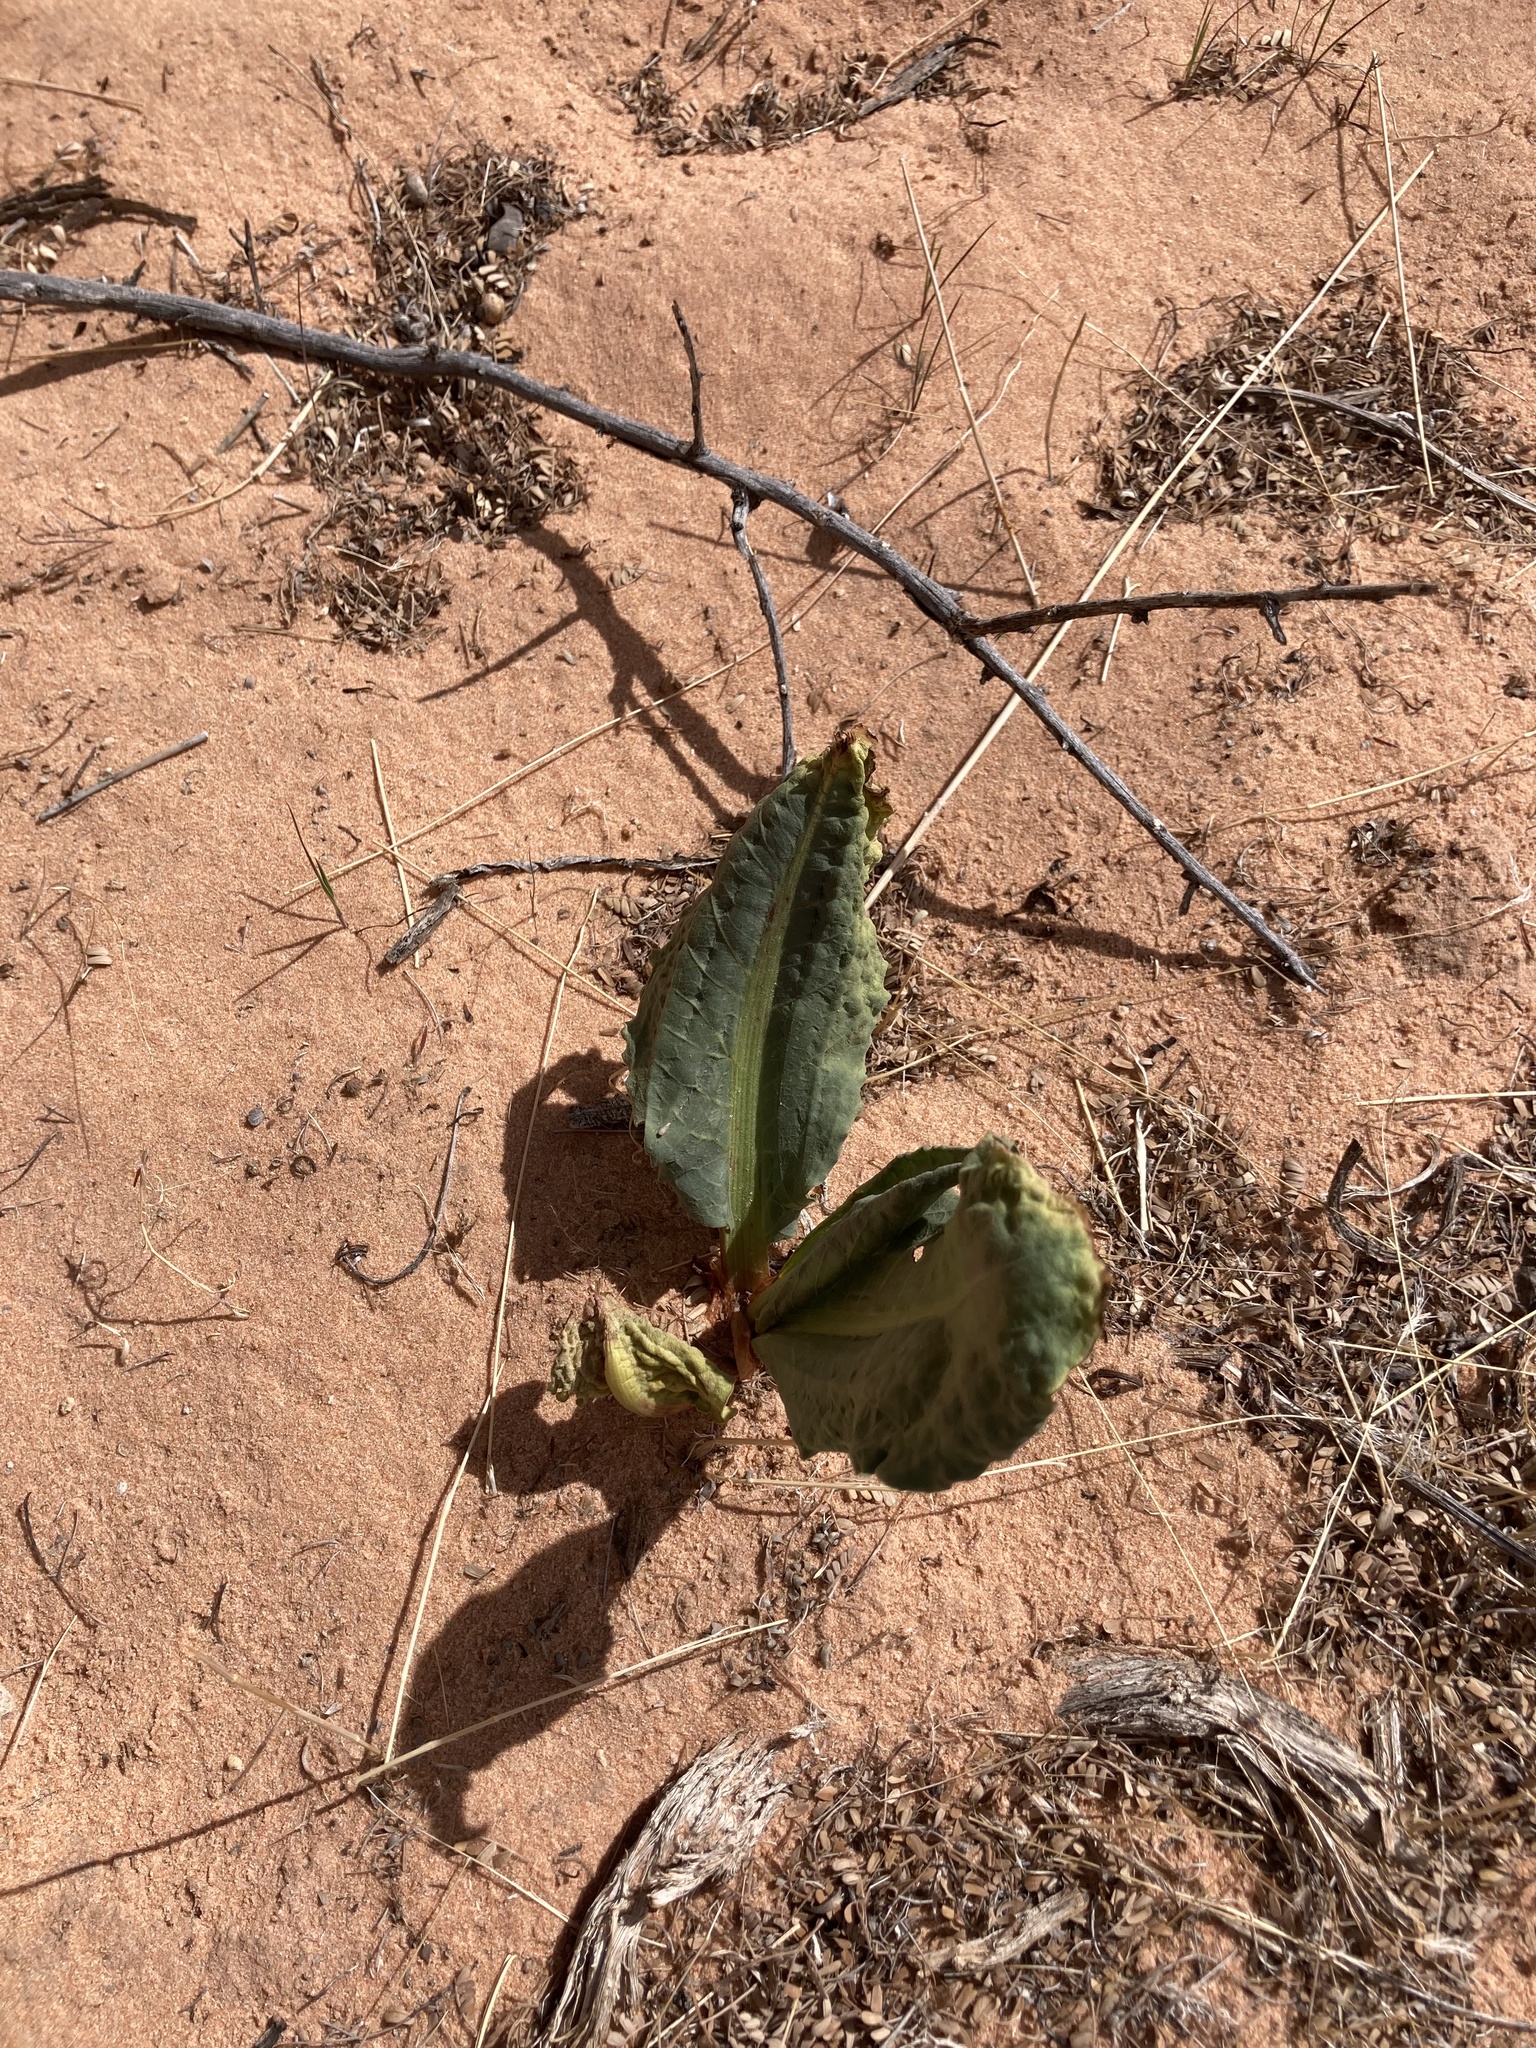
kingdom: Plantae
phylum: Tracheophyta
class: Magnoliopsida
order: Caryophyllales
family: Polygonaceae
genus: Rumex
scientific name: Rumex hymenosepalus
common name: Ganagra
